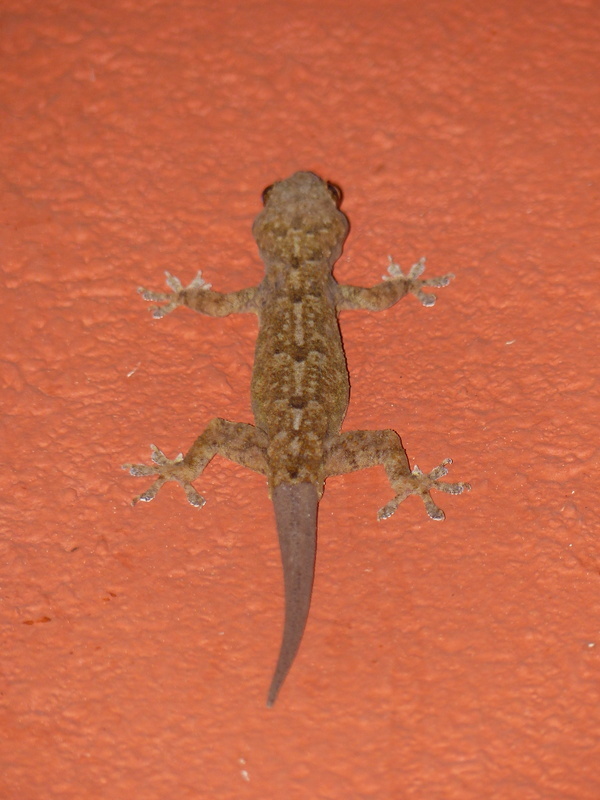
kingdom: Animalia
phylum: Chordata
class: Squamata
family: Gekkonidae
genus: Hemidactylus
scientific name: Hemidactylus platycephalus
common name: Baobab gecko
